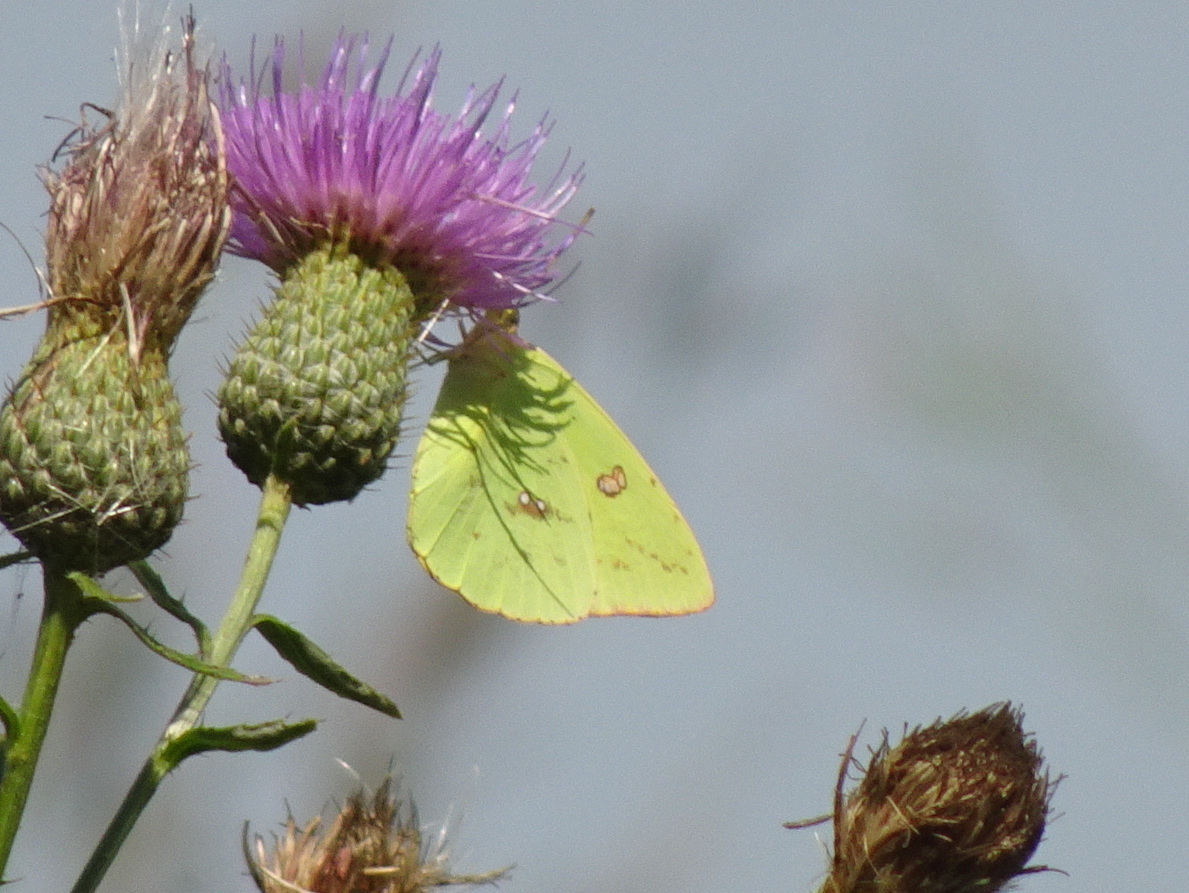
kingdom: Animalia
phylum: Arthropoda
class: Insecta
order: Lepidoptera
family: Pieridae
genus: Phoebis
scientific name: Phoebis sennae
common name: Cloudless sulphur
